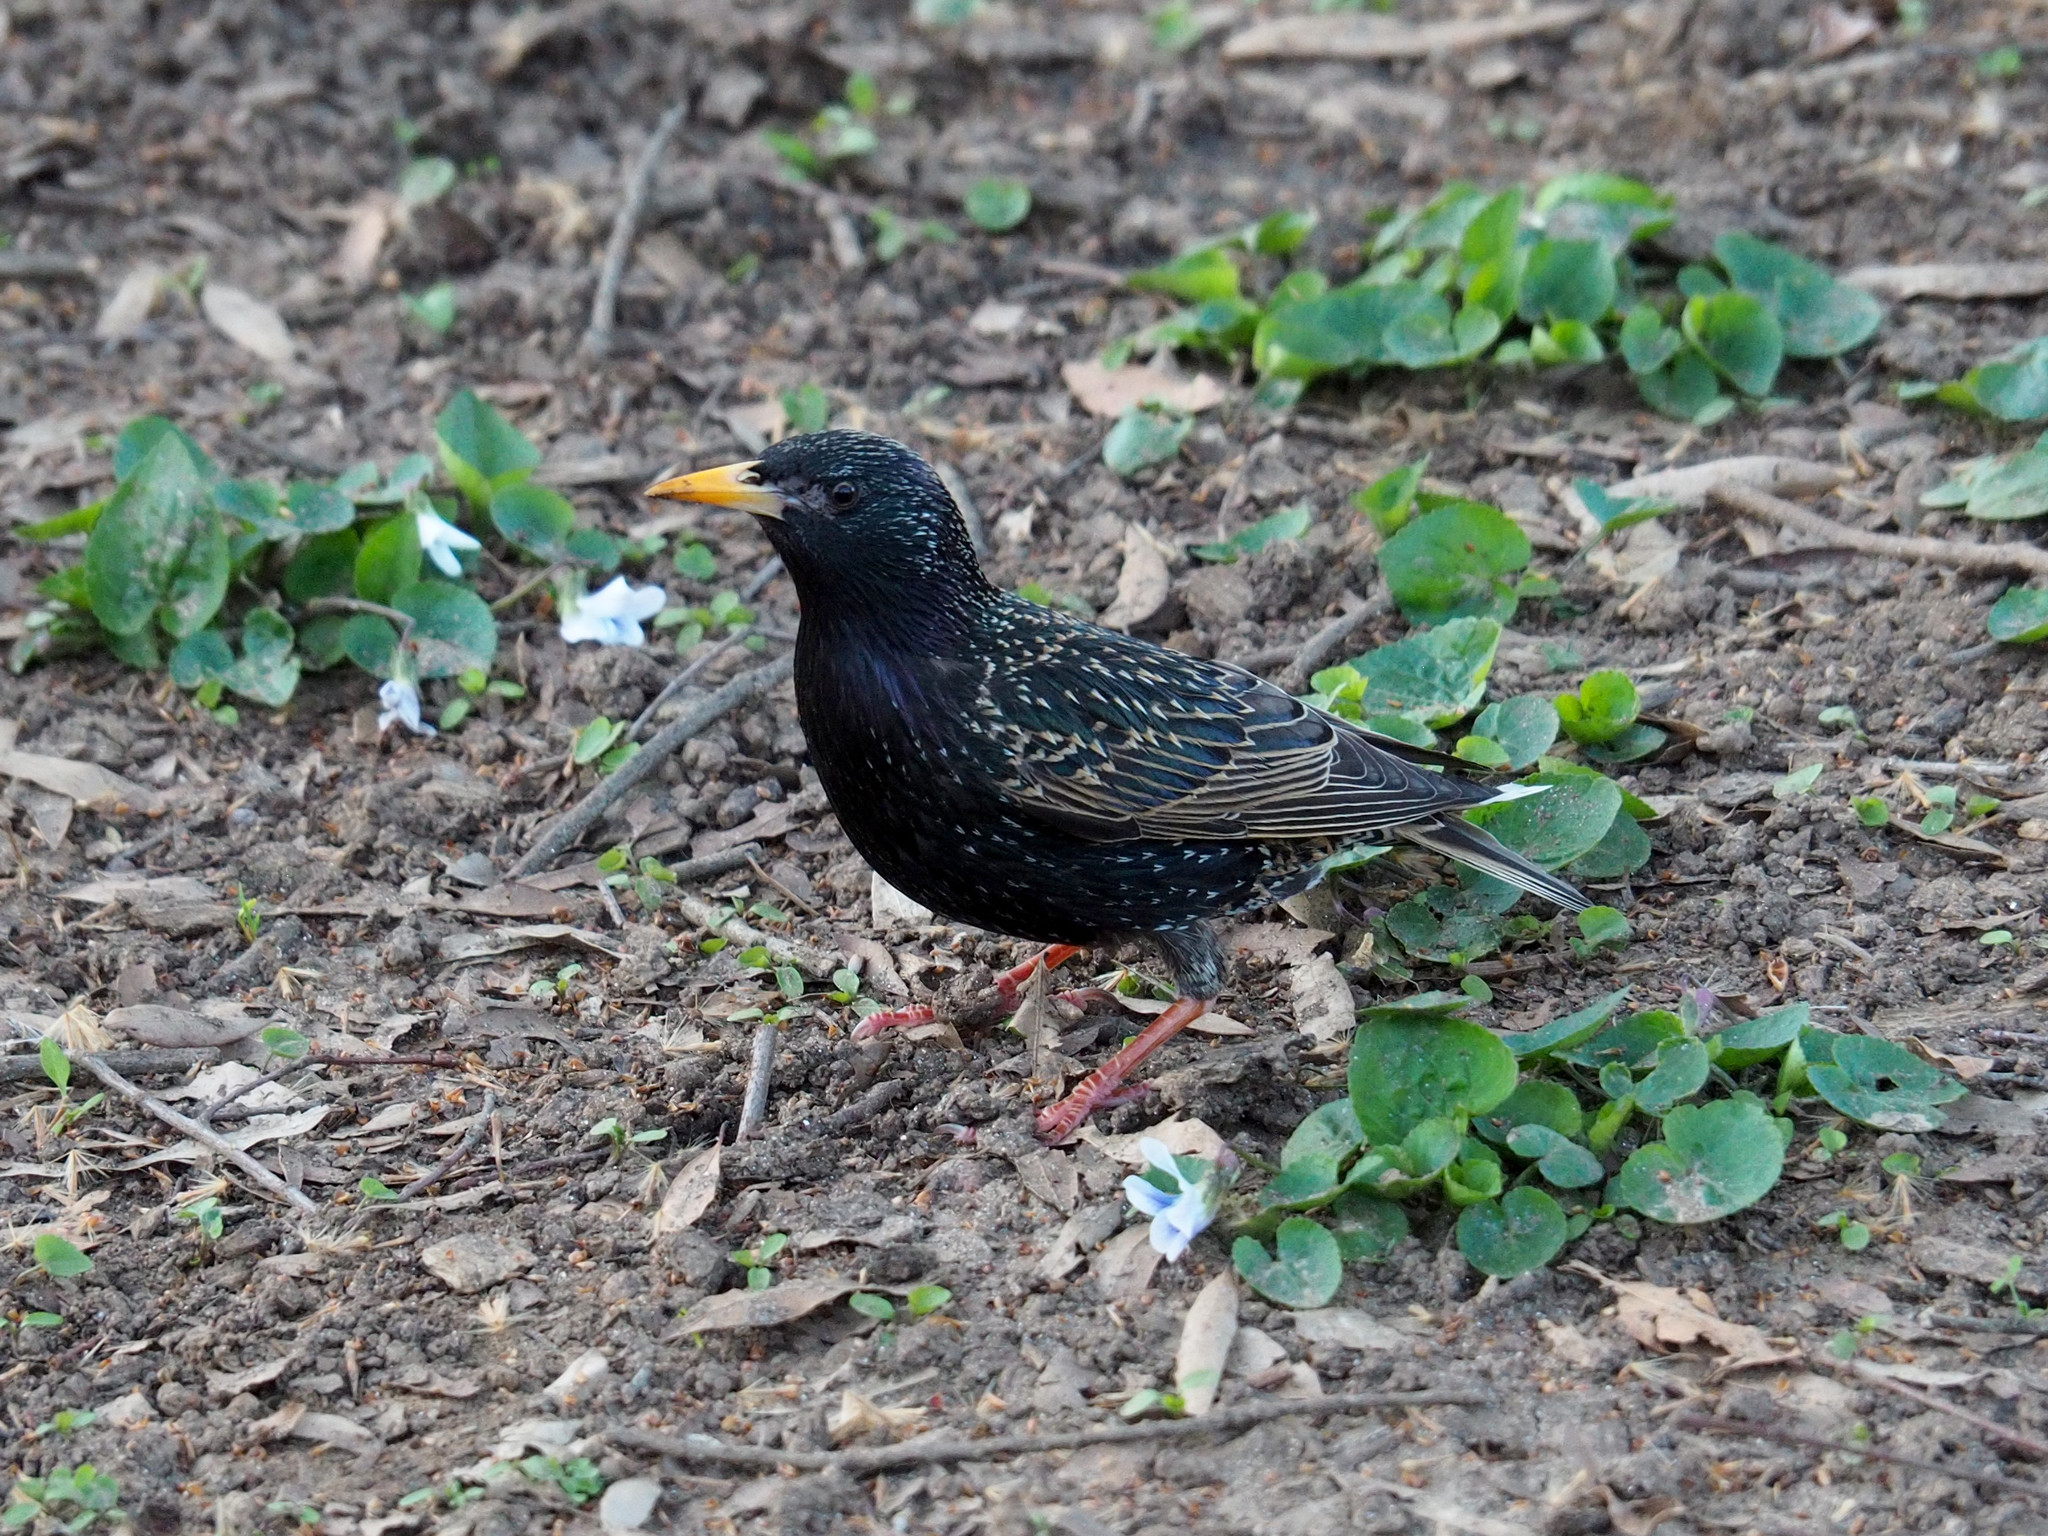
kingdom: Animalia
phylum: Chordata
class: Aves
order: Passeriformes
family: Sturnidae
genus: Sturnus
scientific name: Sturnus vulgaris
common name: Common starling
